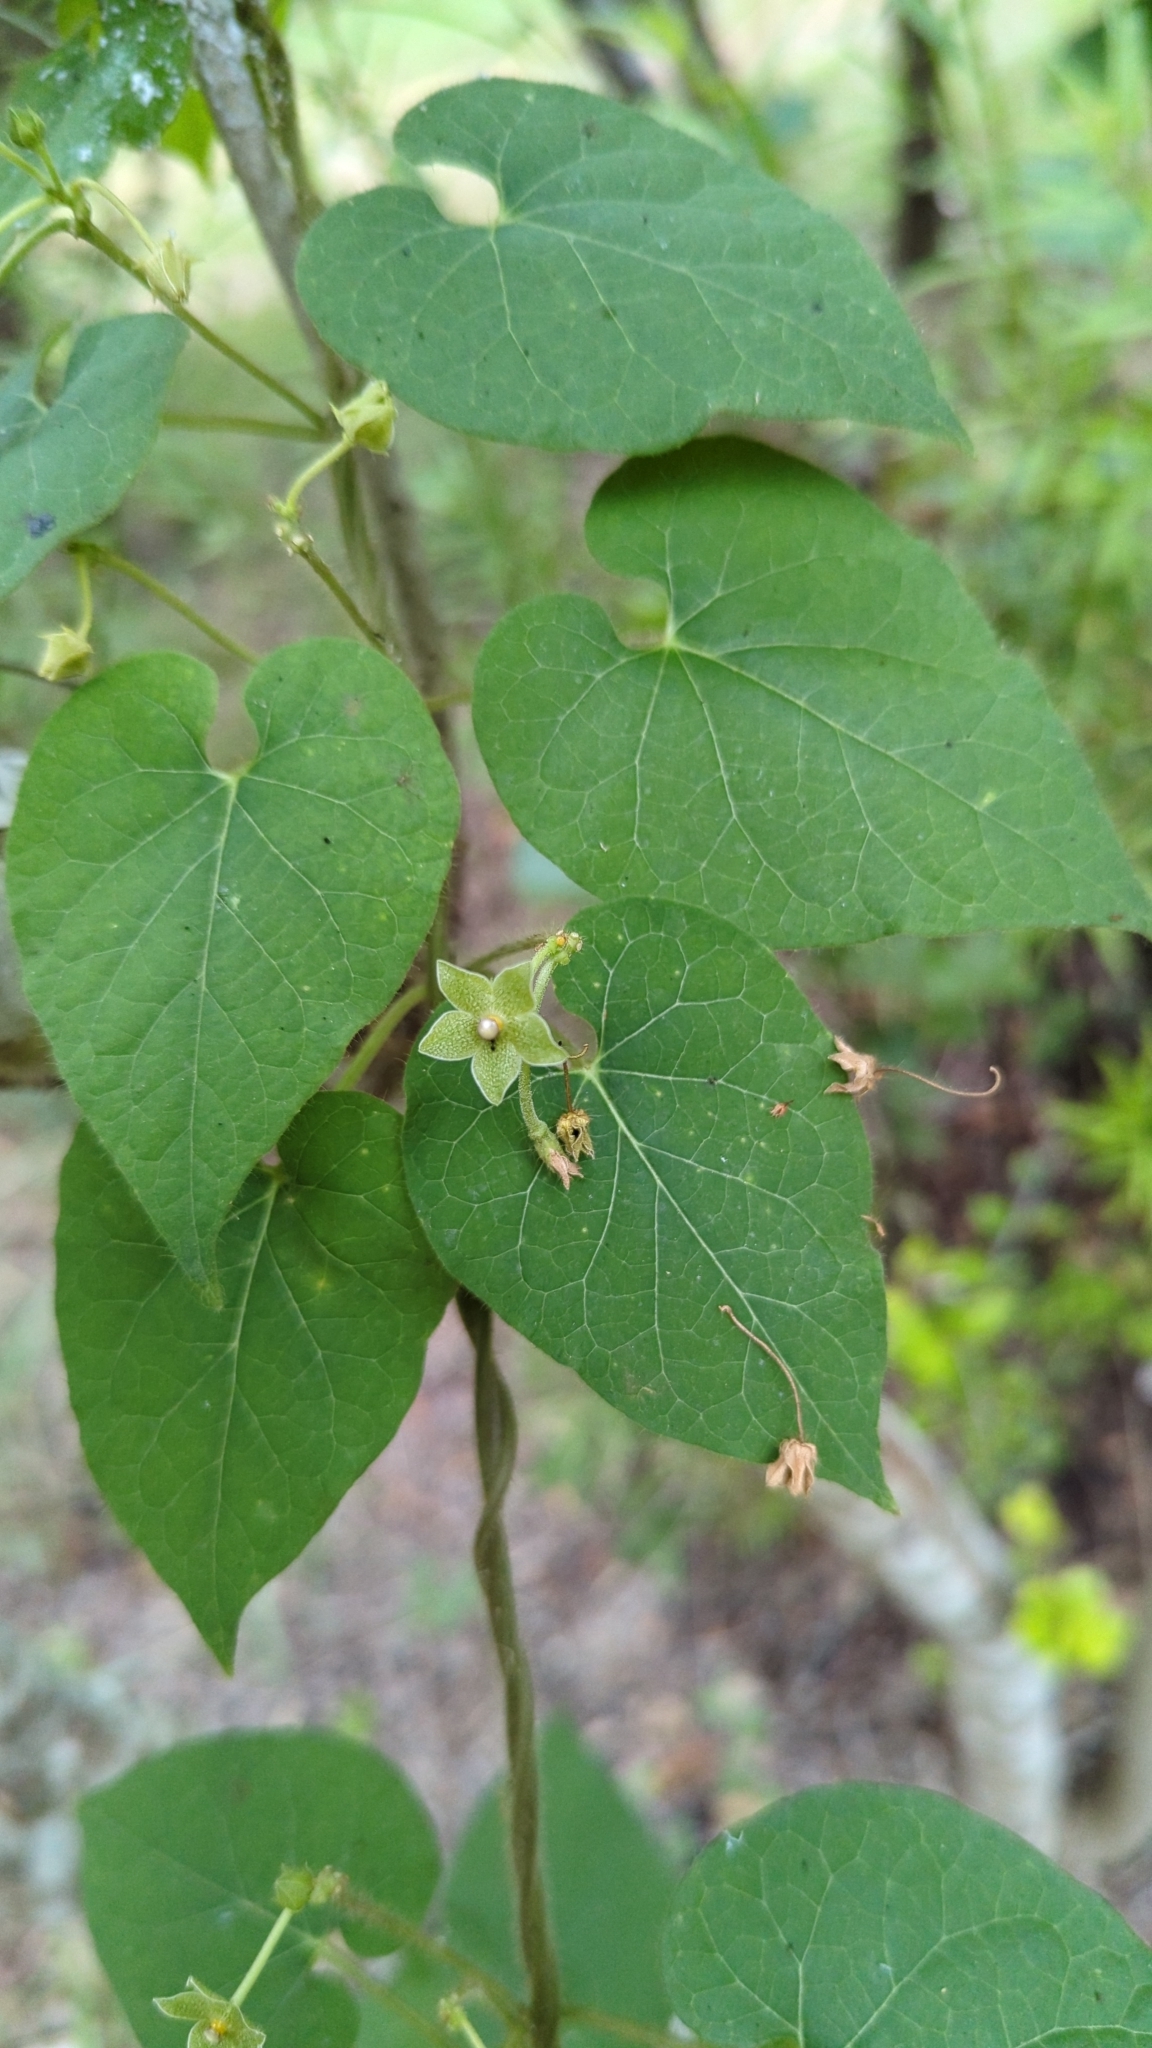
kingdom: Plantae
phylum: Tracheophyta
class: Magnoliopsida
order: Gentianales
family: Apocynaceae
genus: Dictyanthus
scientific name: Dictyanthus reticulatus
